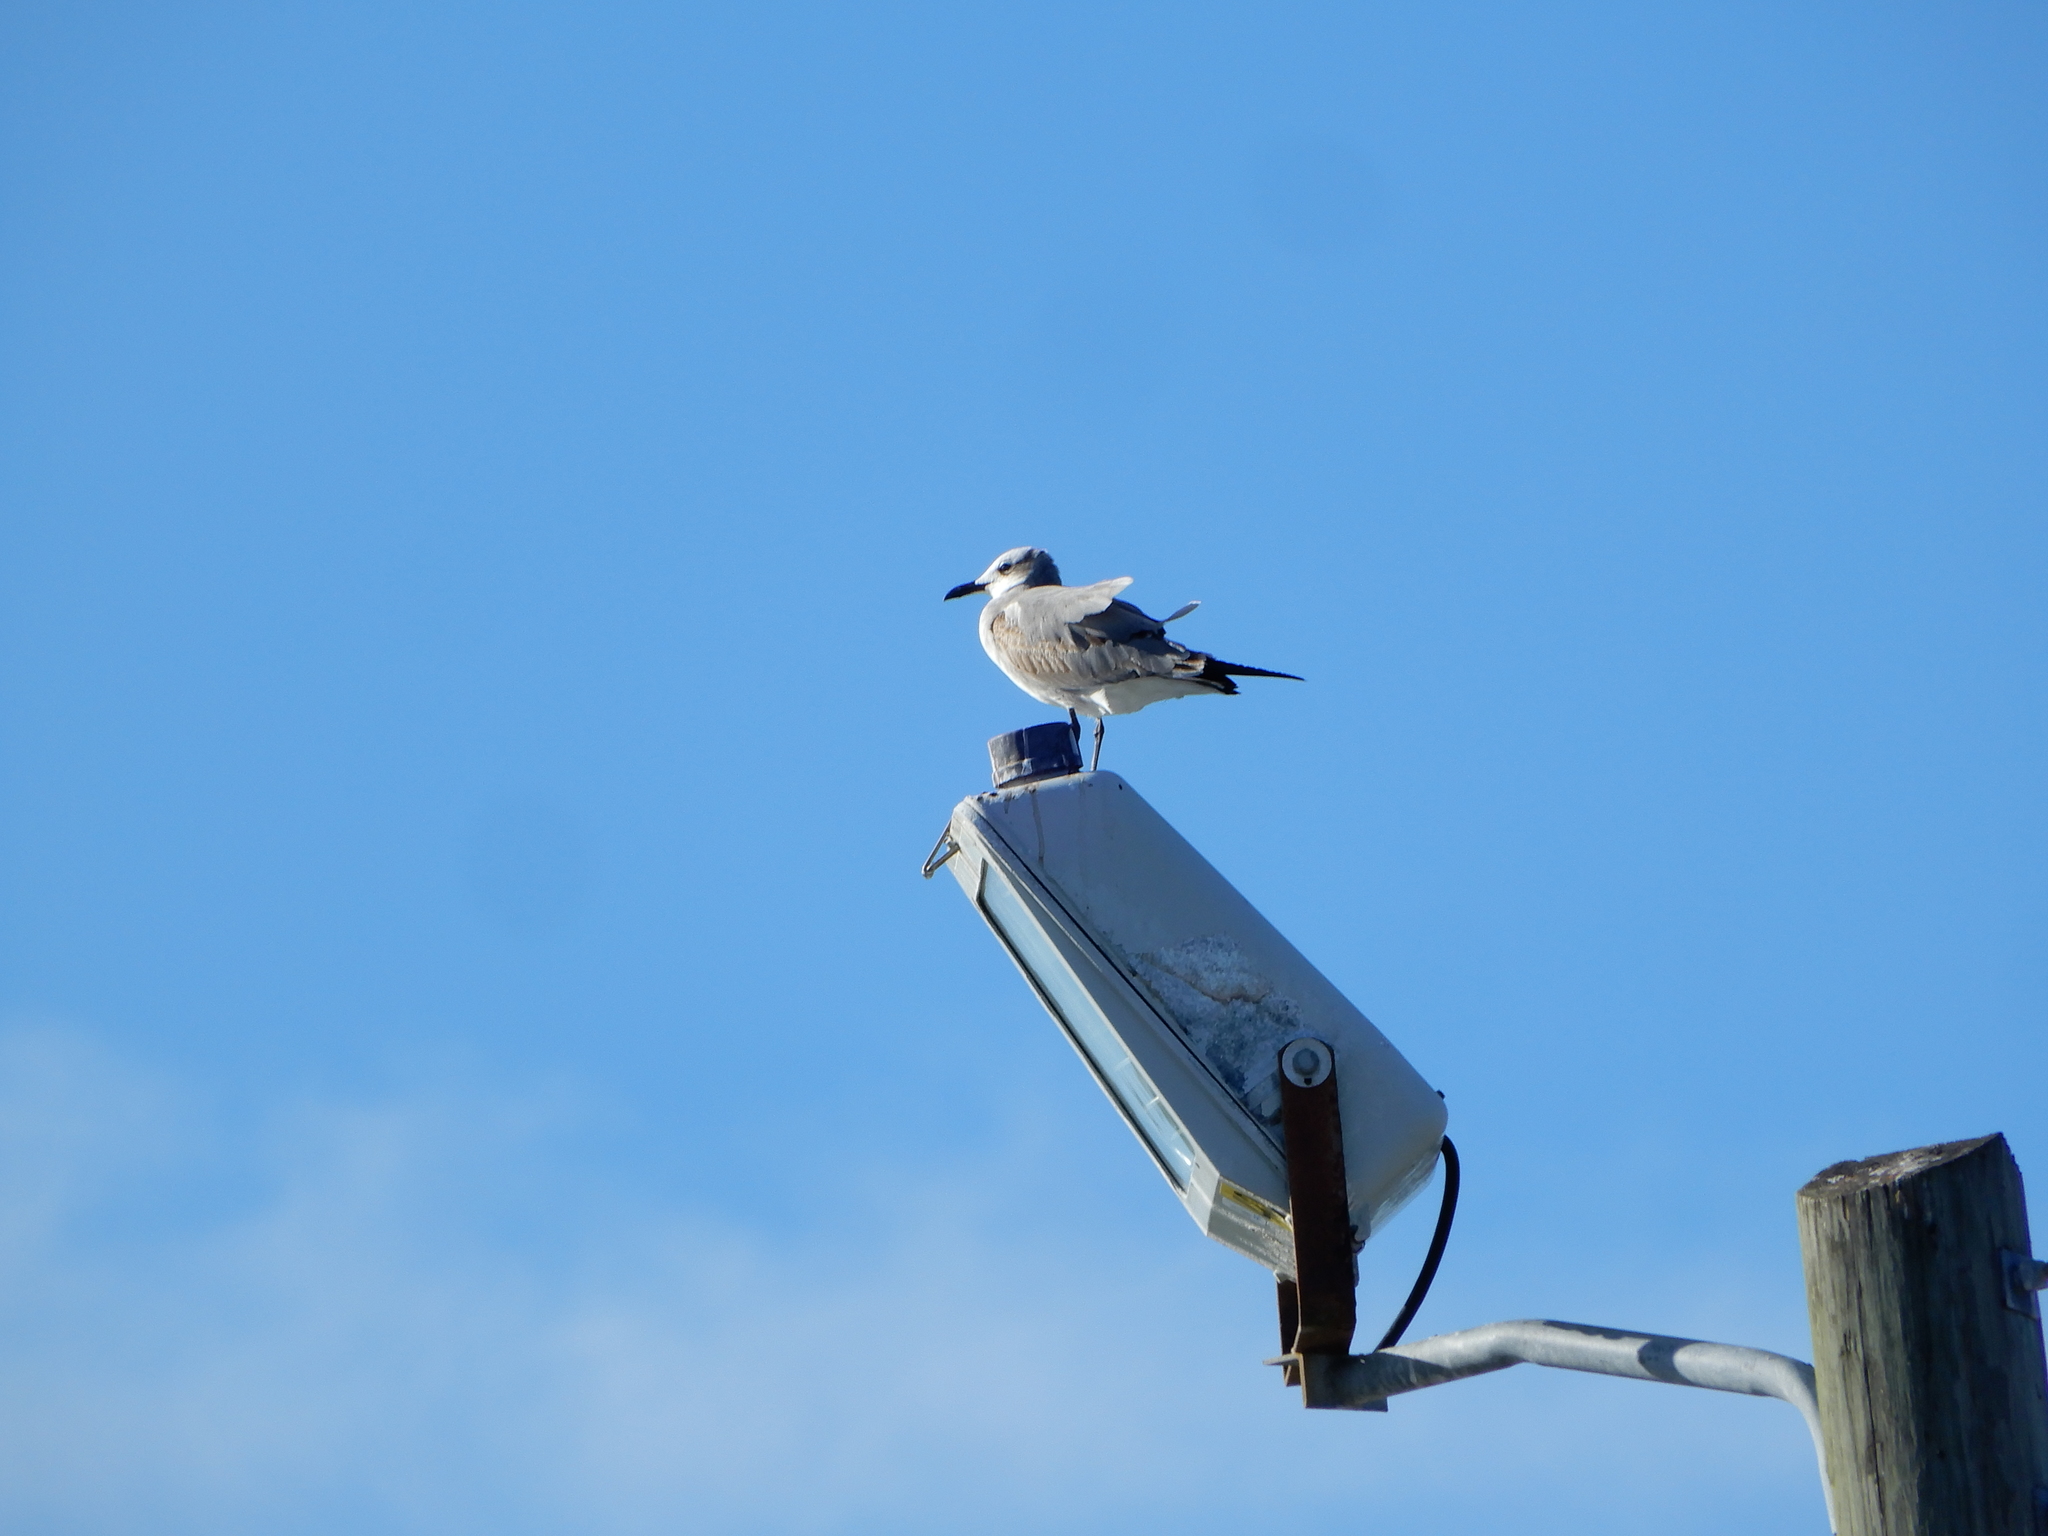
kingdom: Animalia
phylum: Chordata
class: Aves
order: Charadriiformes
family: Laridae
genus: Leucophaeus
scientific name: Leucophaeus atricilla
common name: Laughing gull
